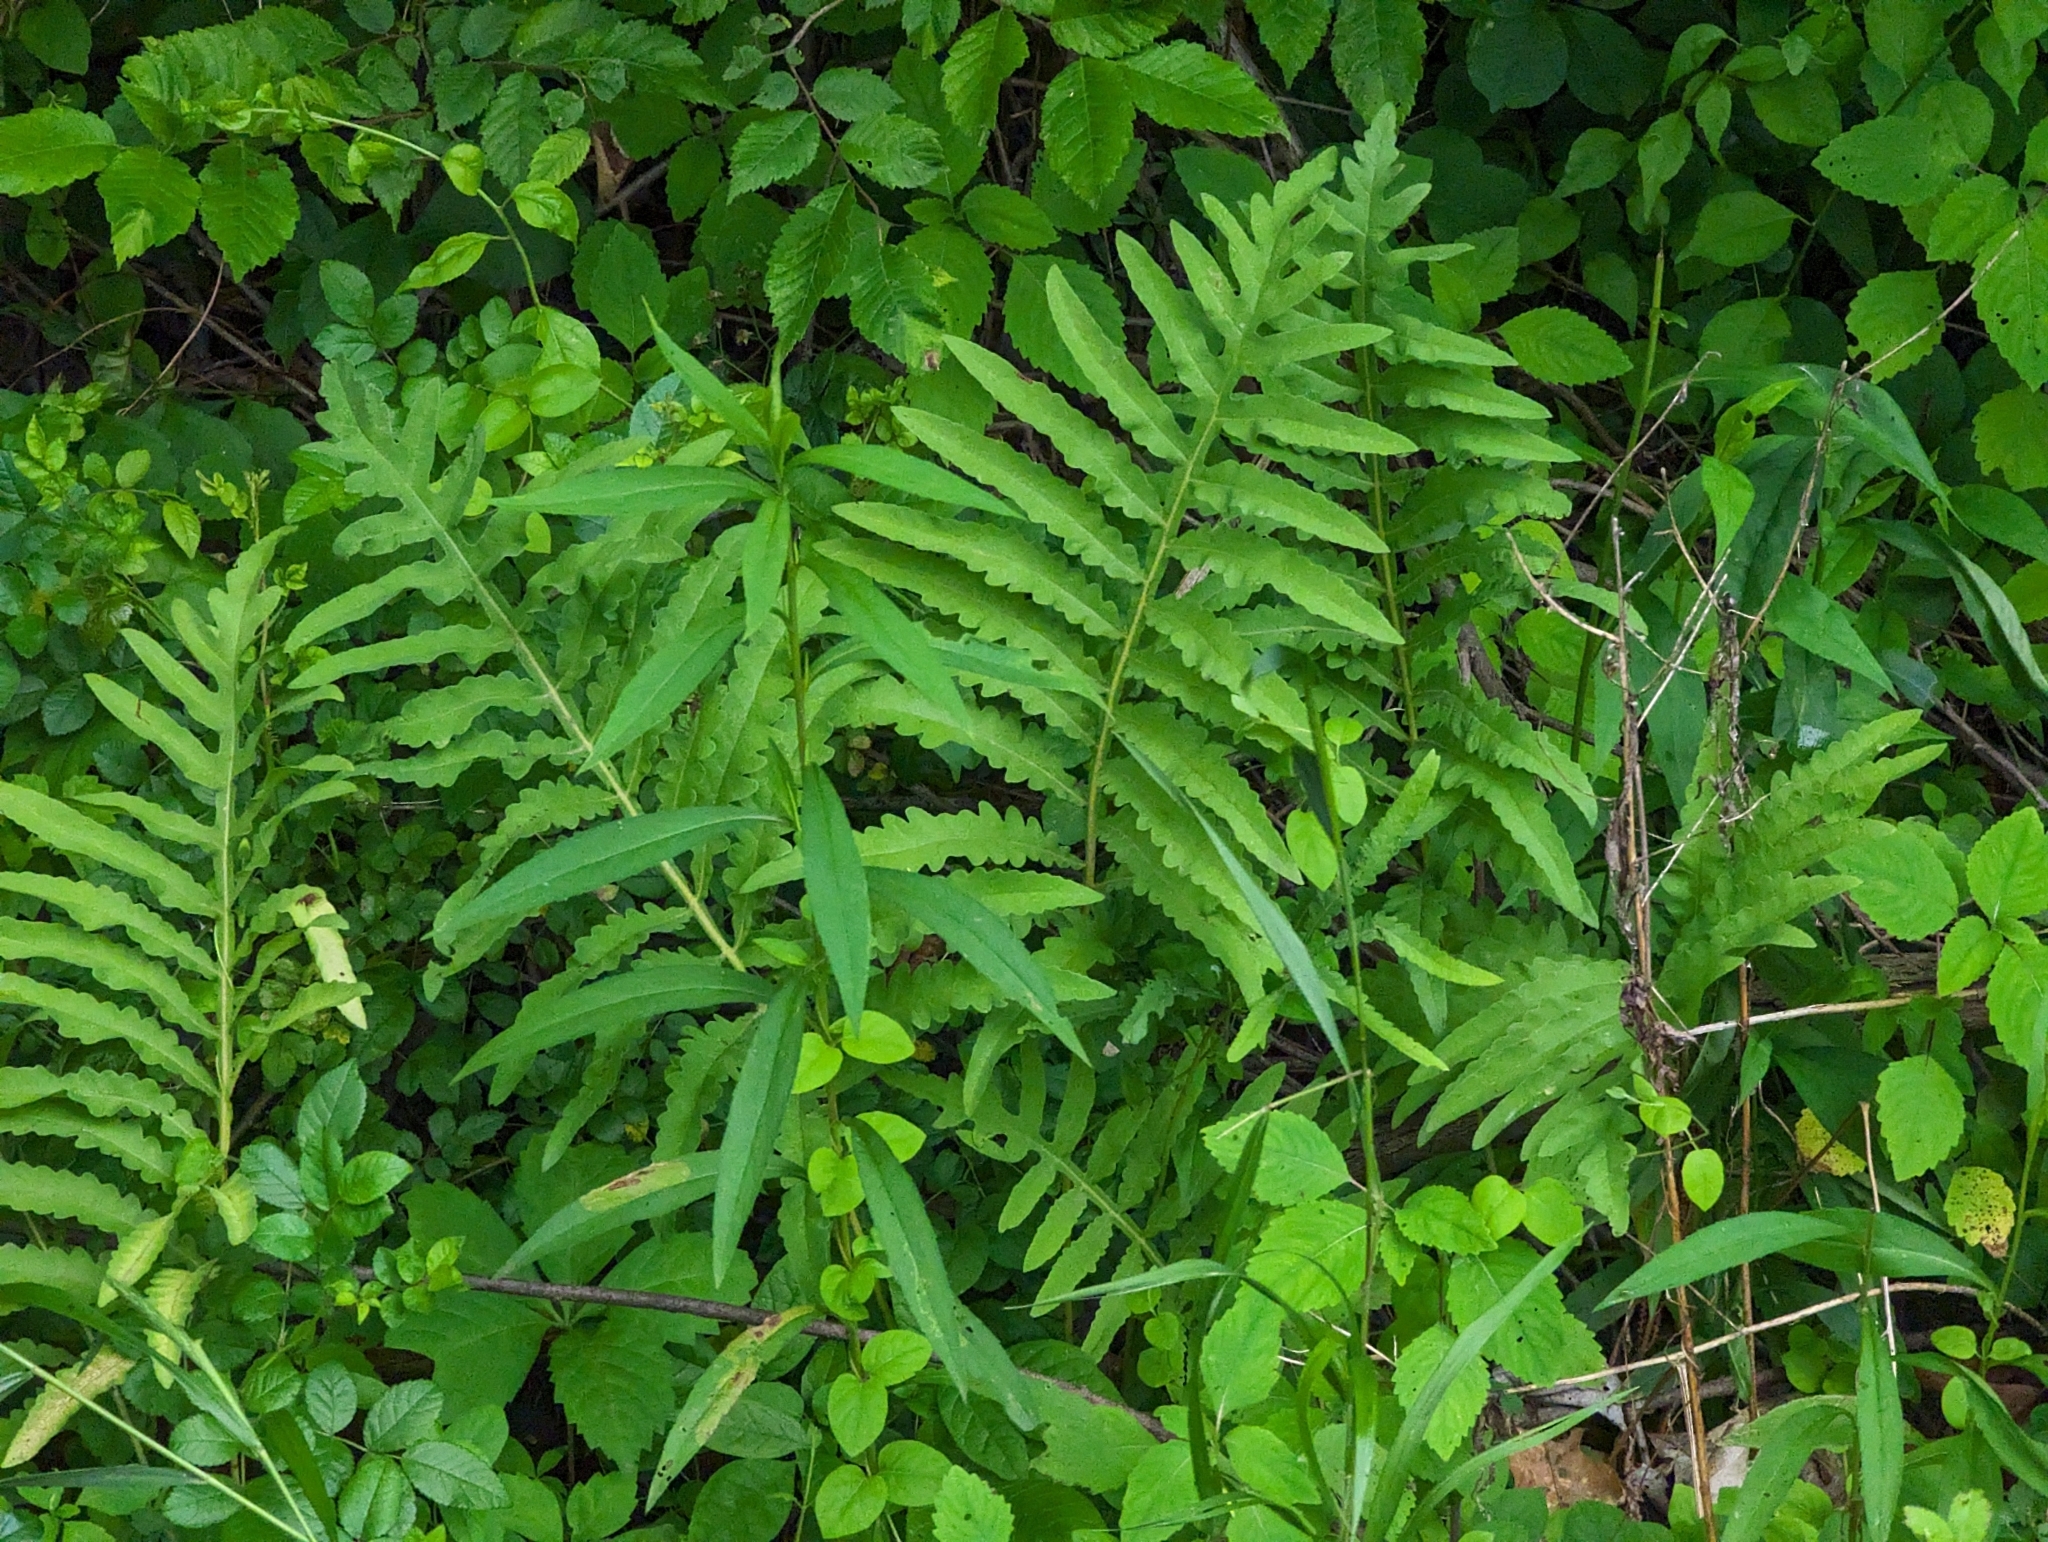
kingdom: Plantae
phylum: Tracheophyta
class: Polypodiopsida
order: Polypodiales
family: Onocleaceae
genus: Onoclea
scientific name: Onoclea sensibilis
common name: Sensitive fern
